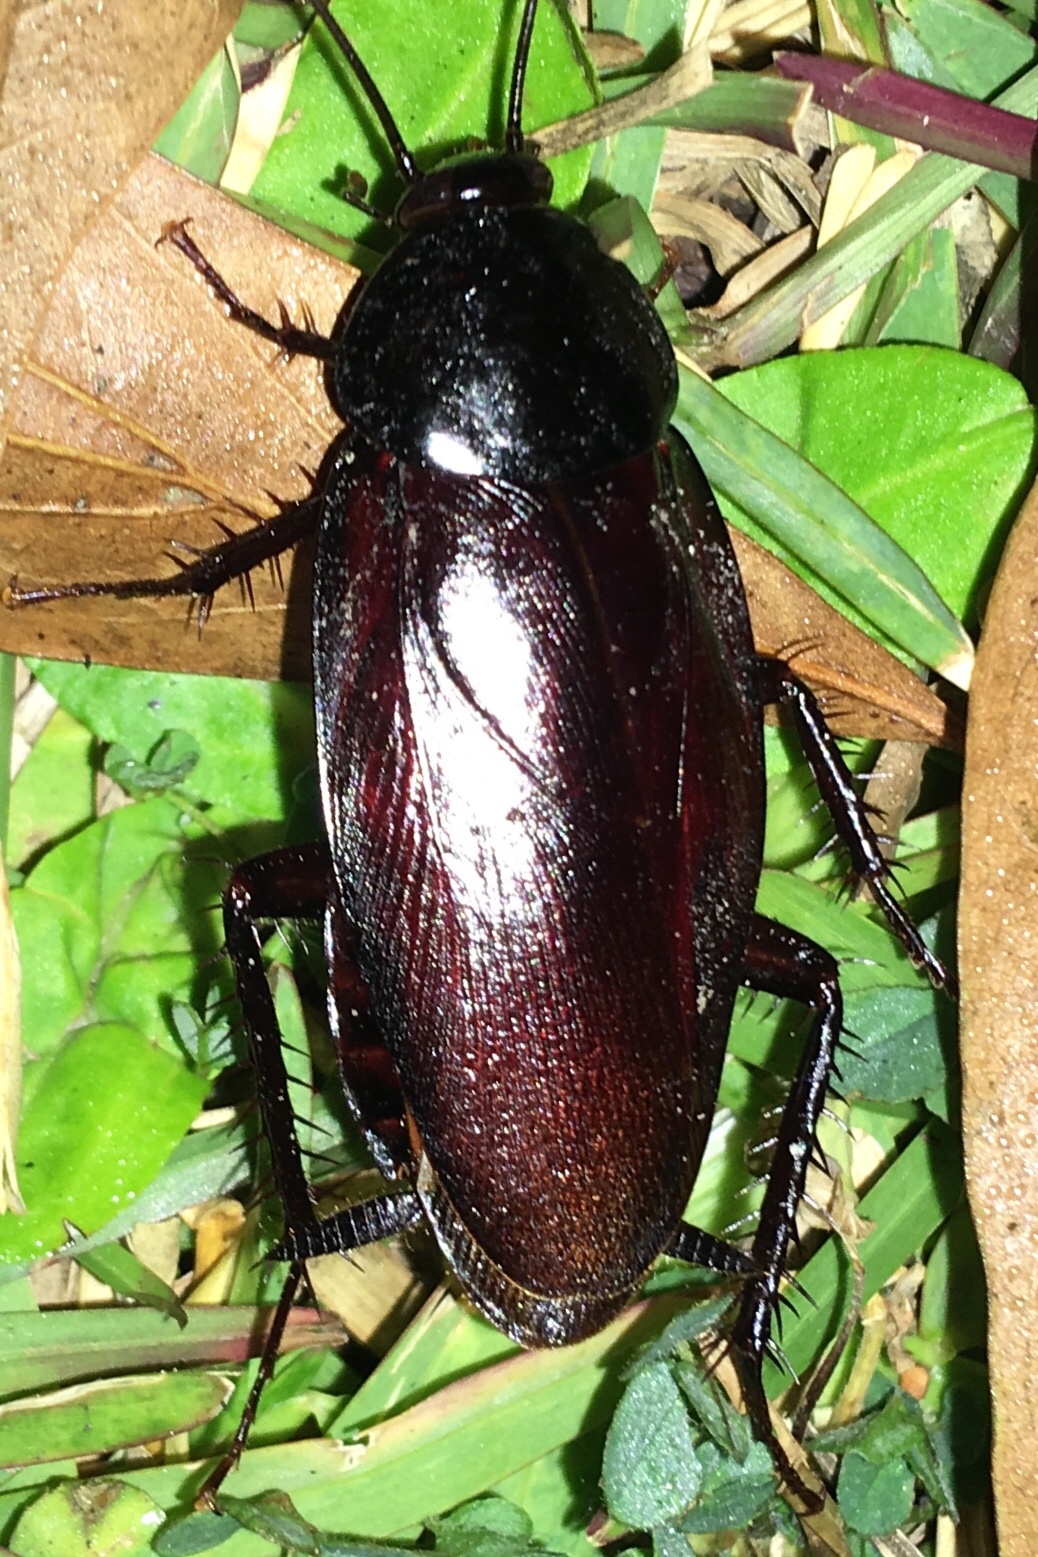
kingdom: Animalia
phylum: Arthropoda
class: Insecta
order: Blattodea
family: Blattidae
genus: Periplaneta
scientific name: Periplaneta fuliginosa
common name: Smokeybrown cockroad
